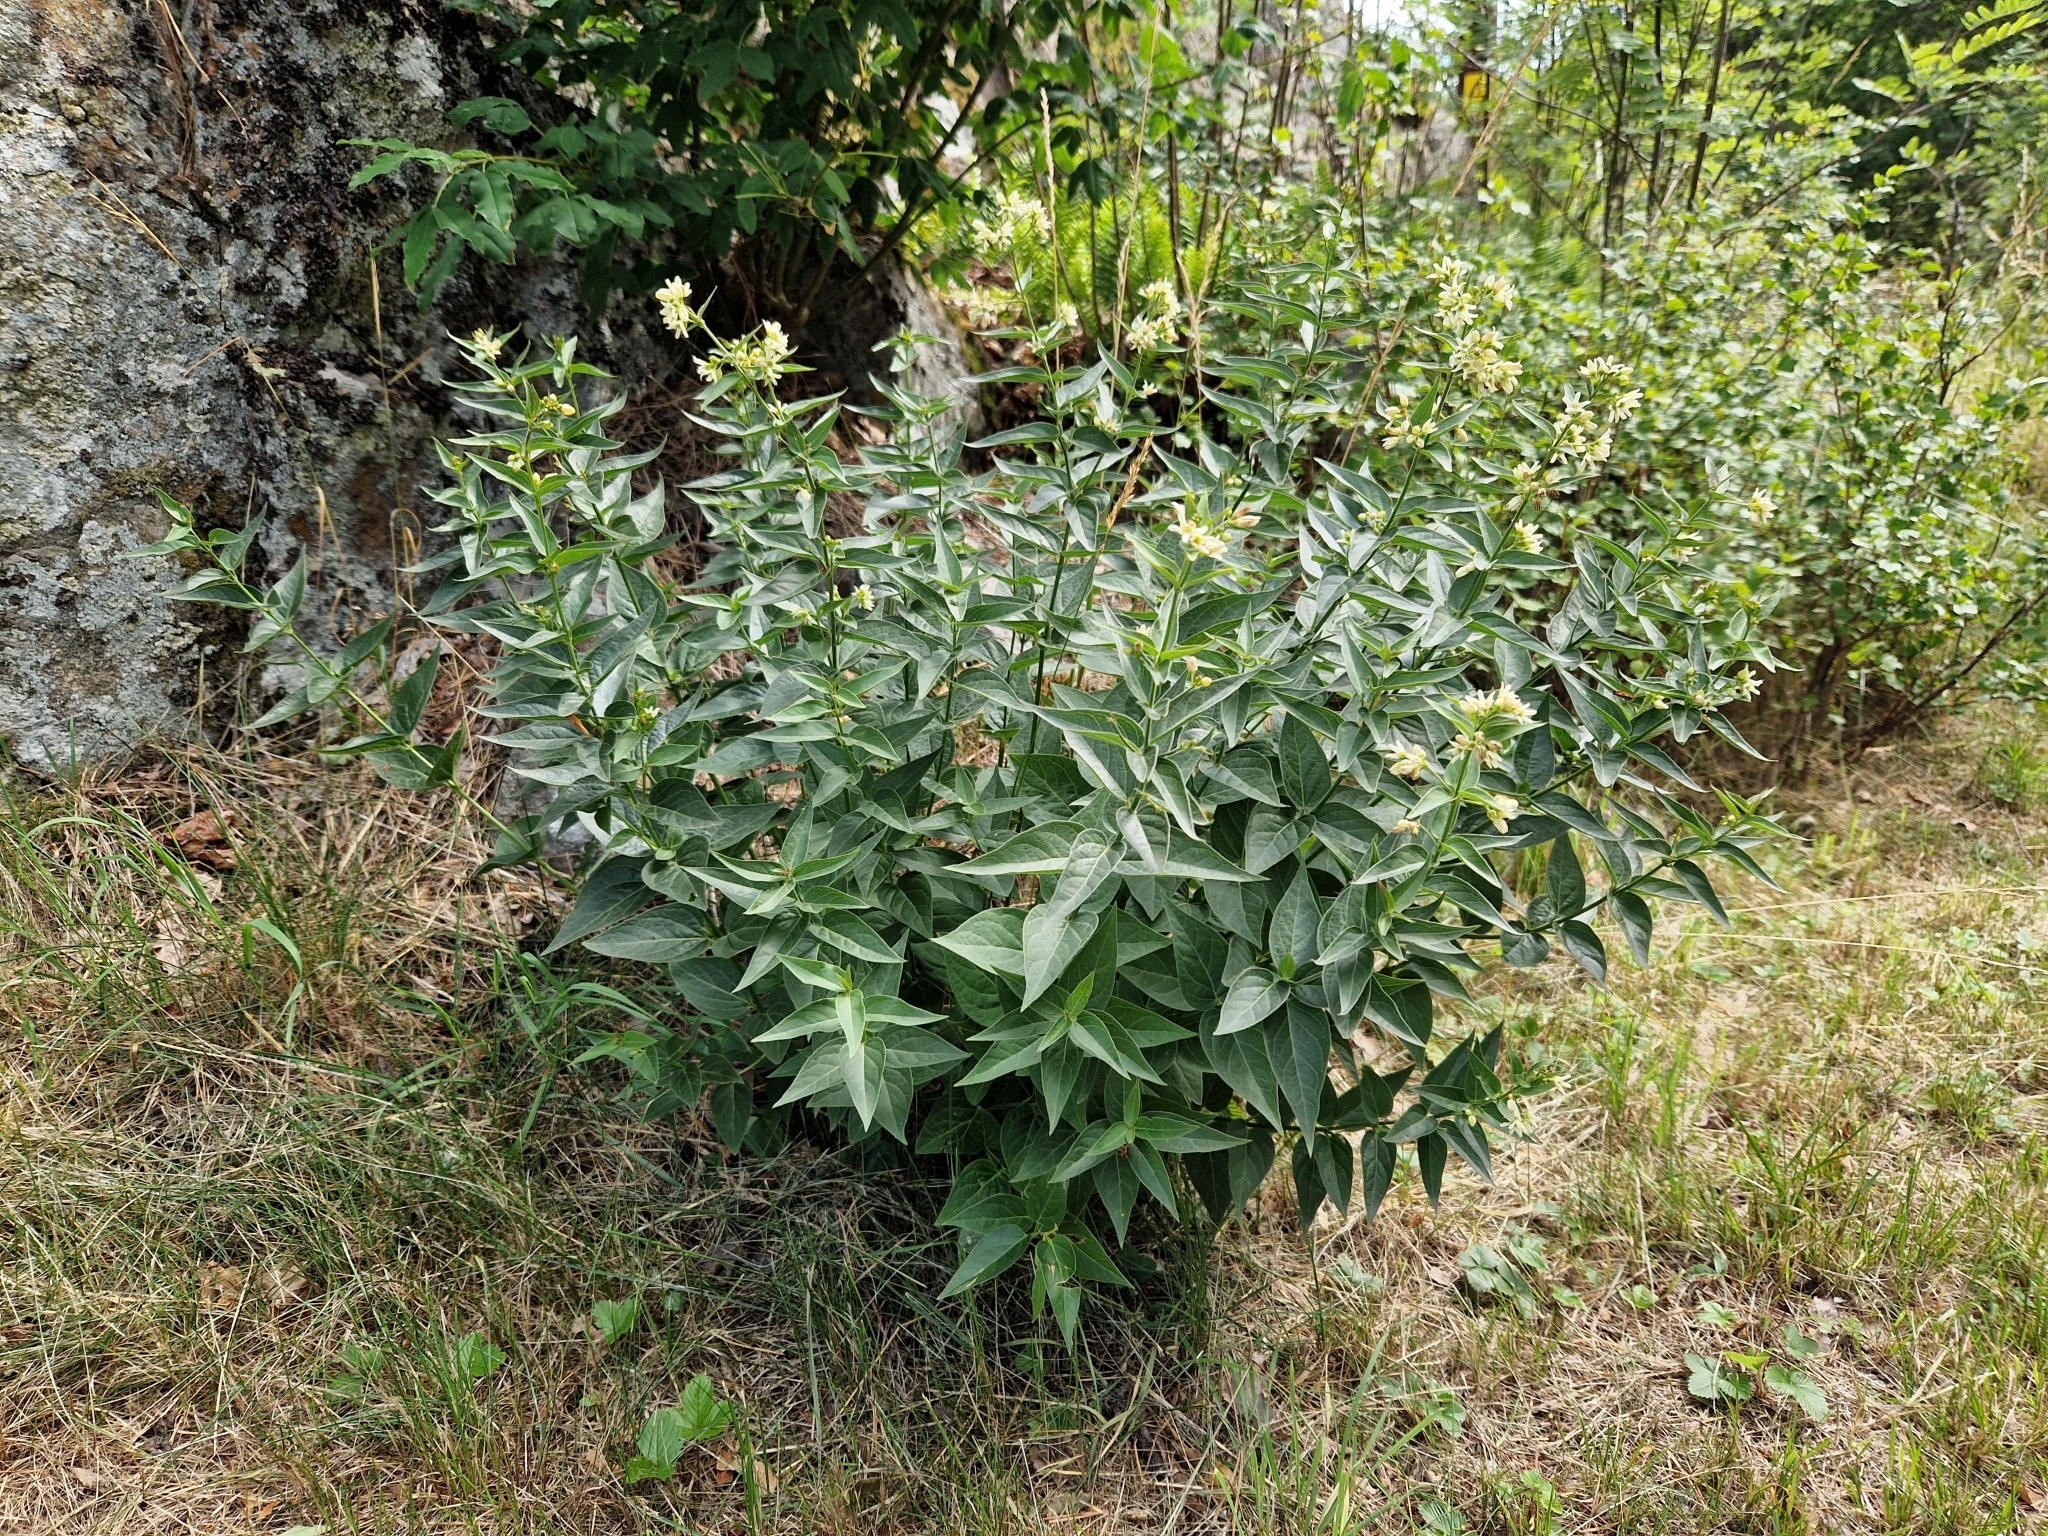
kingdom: Plantae
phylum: Tracheophyta
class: Magnoliopsida
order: Gentianales
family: Apocynaceae
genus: Vincetoxicum
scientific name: Vincetoxicum hirundinaria
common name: White swallowwort
